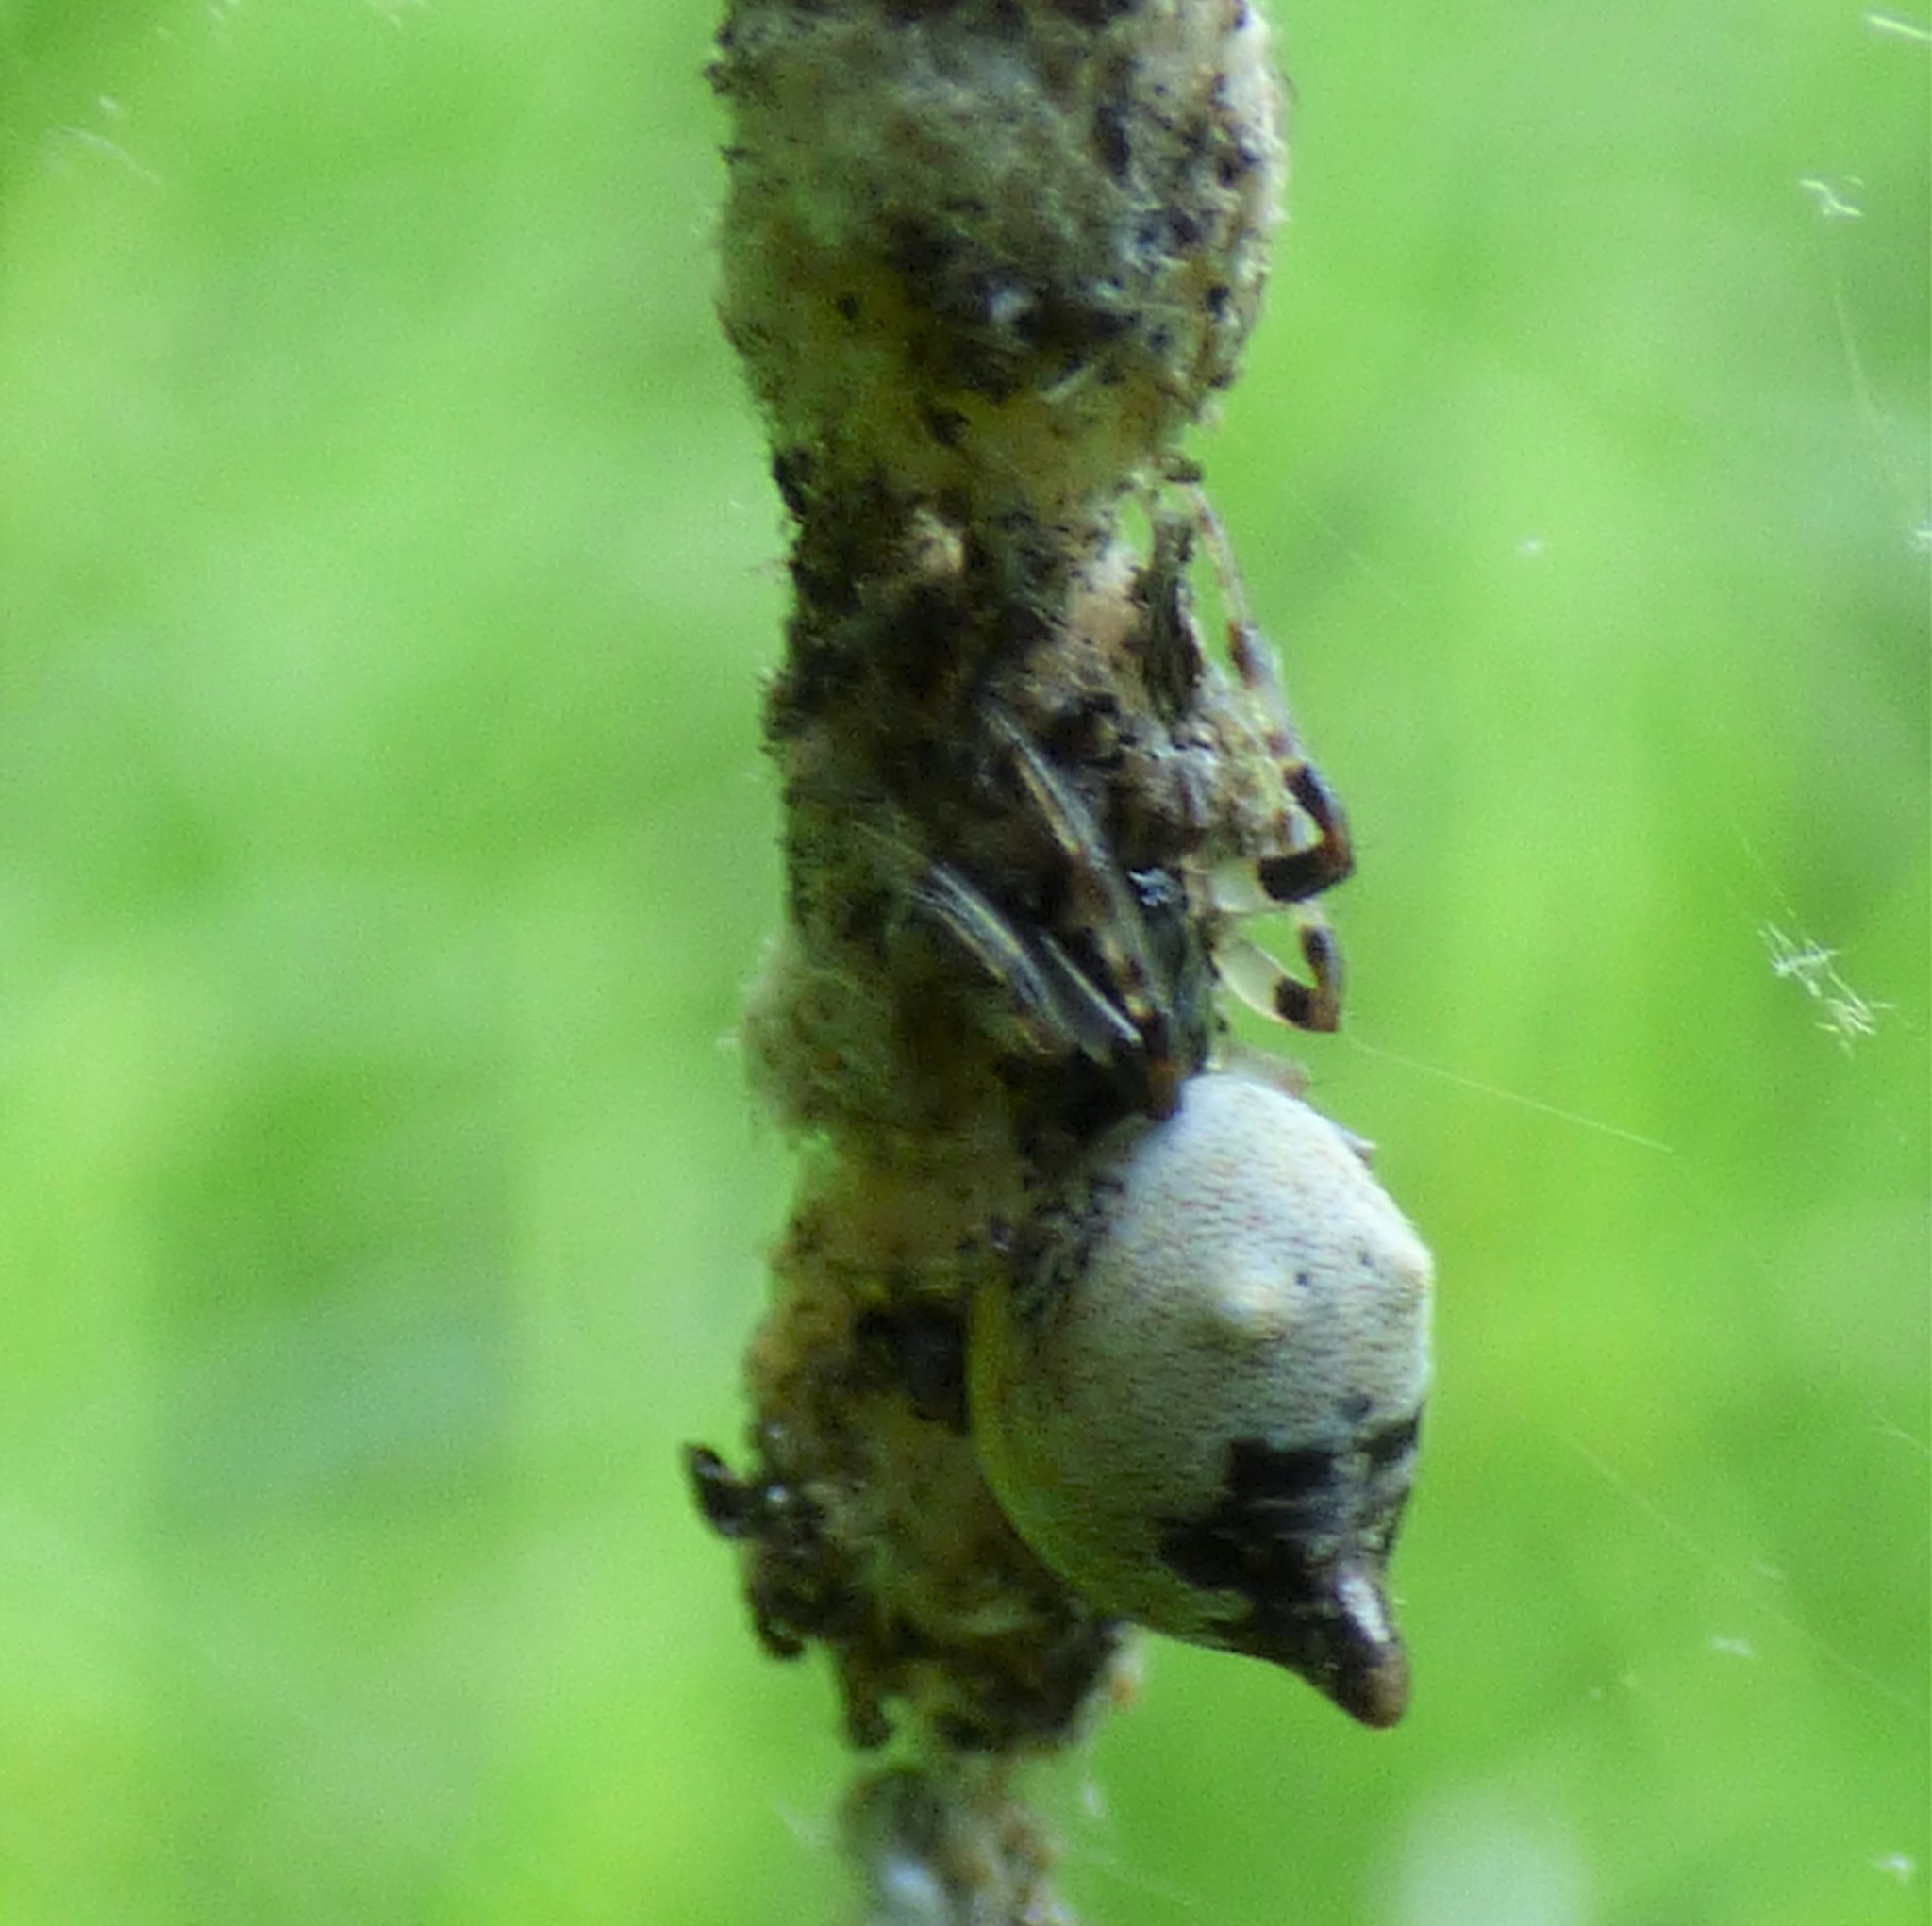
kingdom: Animalia
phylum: Arthropoda
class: Arachnida
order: Araneae
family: Araneidae
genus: Cyclosa
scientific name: Cyclosa turbinata
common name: Orb weavers
